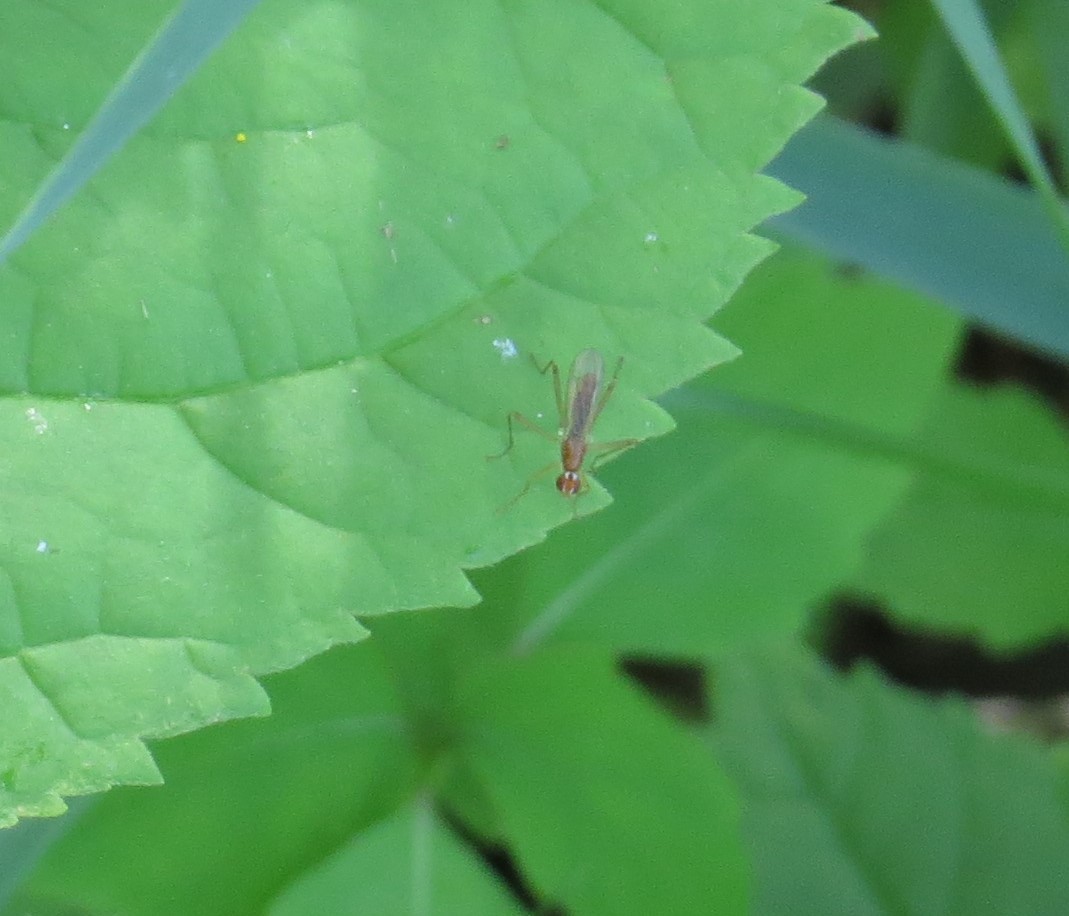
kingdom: Animalia
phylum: Arthropoda
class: Insecta
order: Diptera
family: Micropezidae
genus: Compsobata
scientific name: Compsobata univitta
